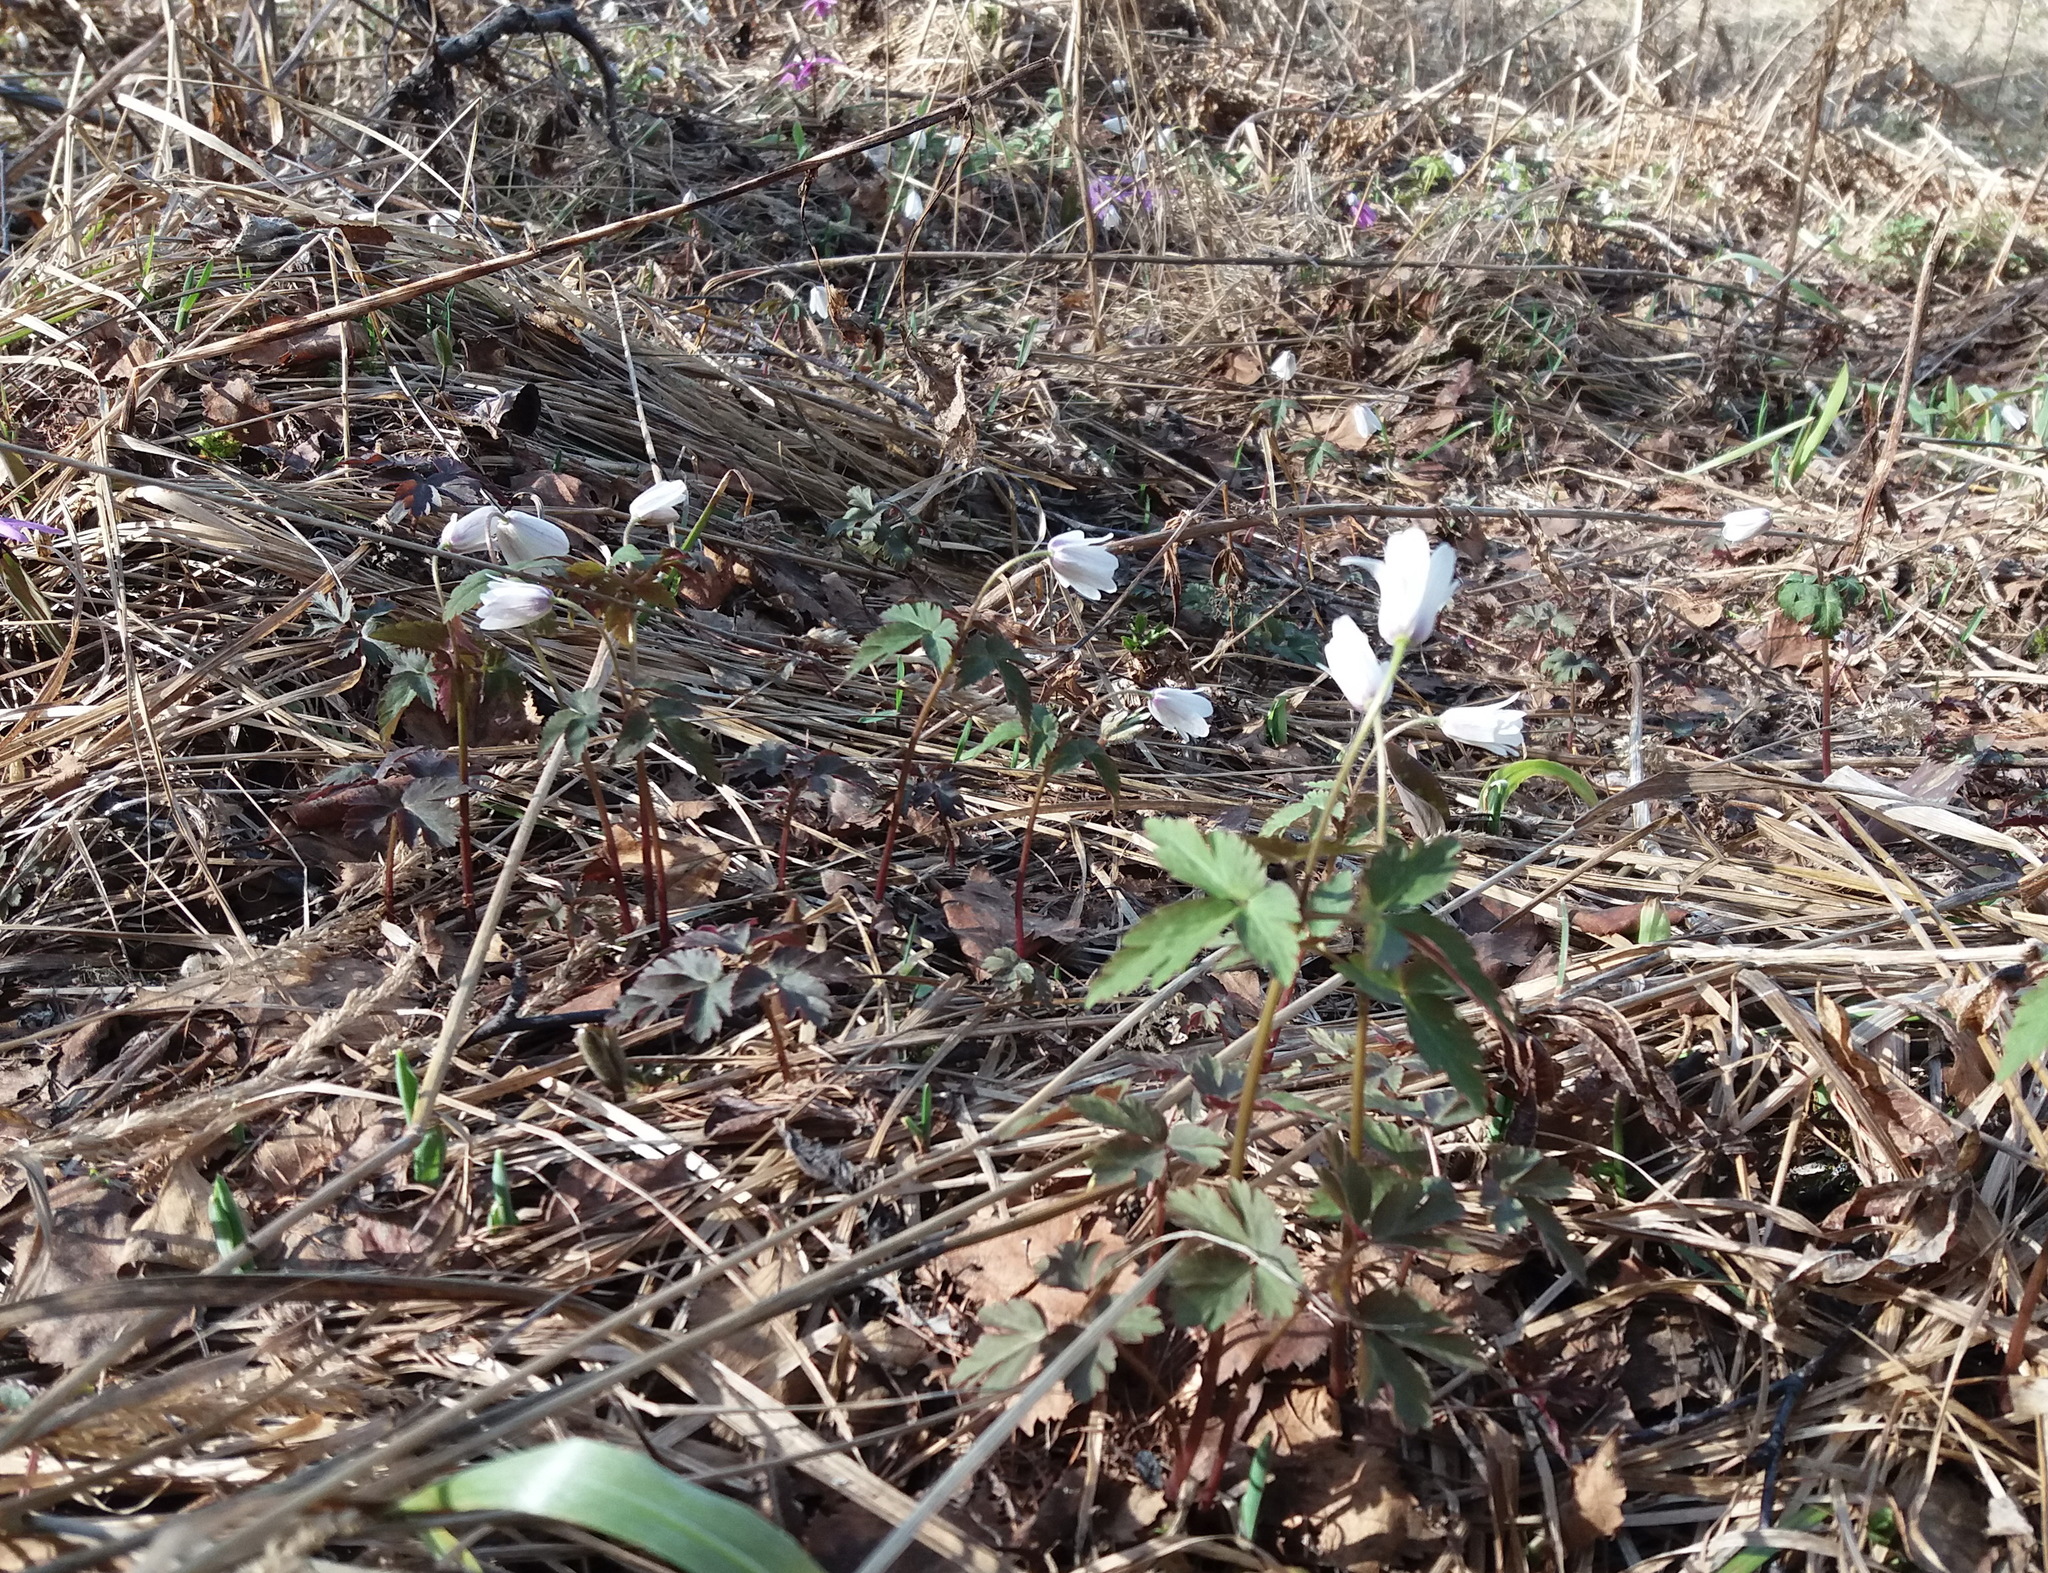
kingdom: Plantae
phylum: Tracheophyta
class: Magnoliopsida
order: Ranunculales
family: Ranunculaceae
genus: Anemone
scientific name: Anemone altaica
